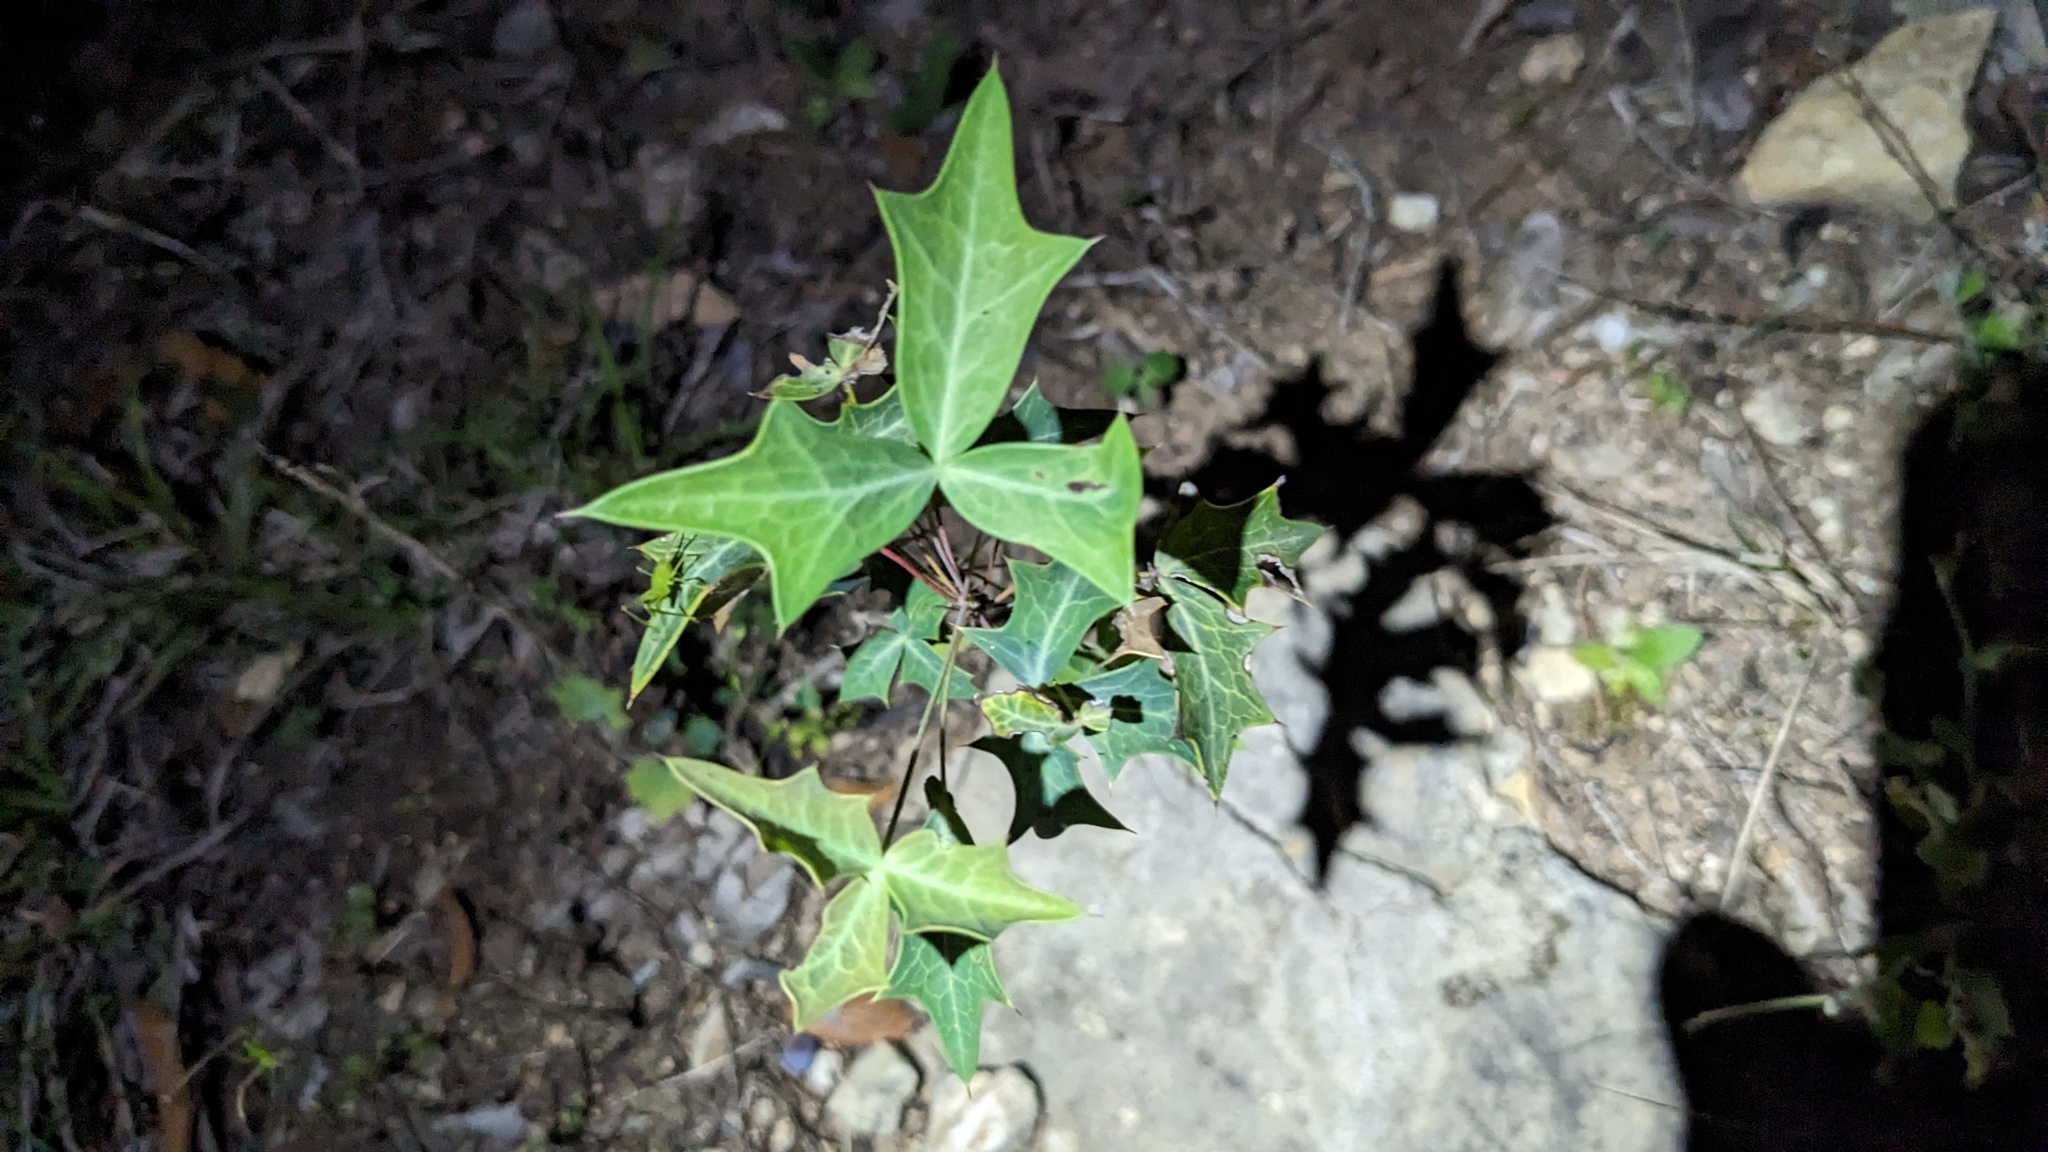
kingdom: Plantae
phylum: Tracheophyta
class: Magnoliopsida
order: Ranunculales
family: Berberidaceae
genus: Alloberberis
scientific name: Alloberberis trifoliolata
